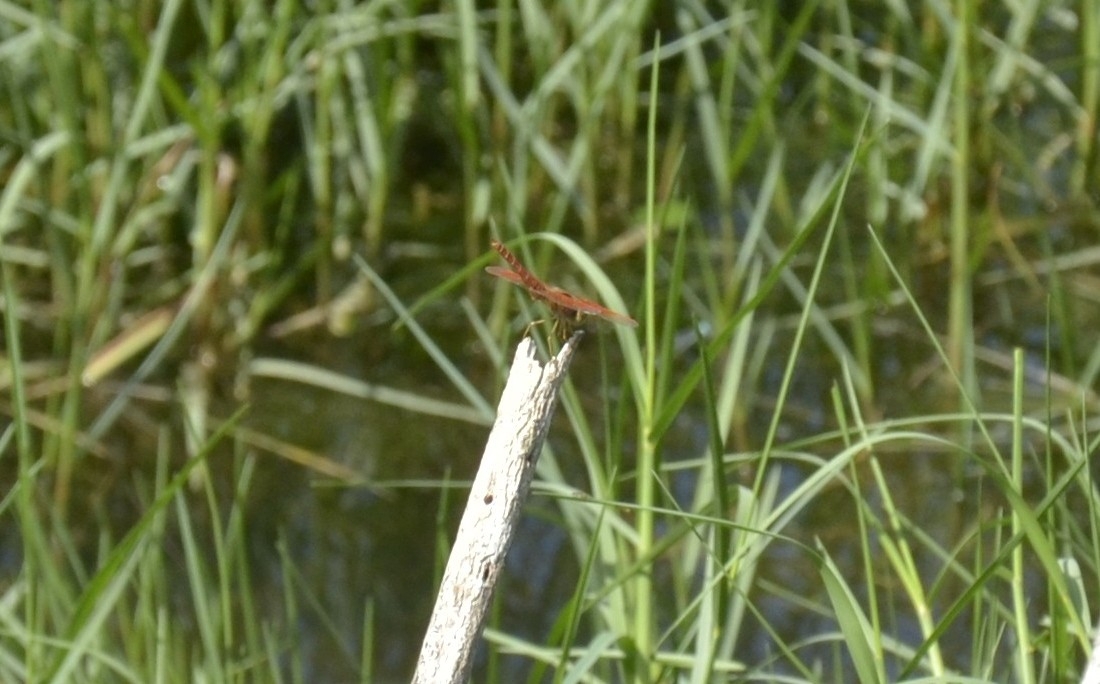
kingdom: Animalia
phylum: Arthropoda
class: Insecta
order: Odonata
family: Libellulidae
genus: Brachythemis
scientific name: Brachythemis contaminata
